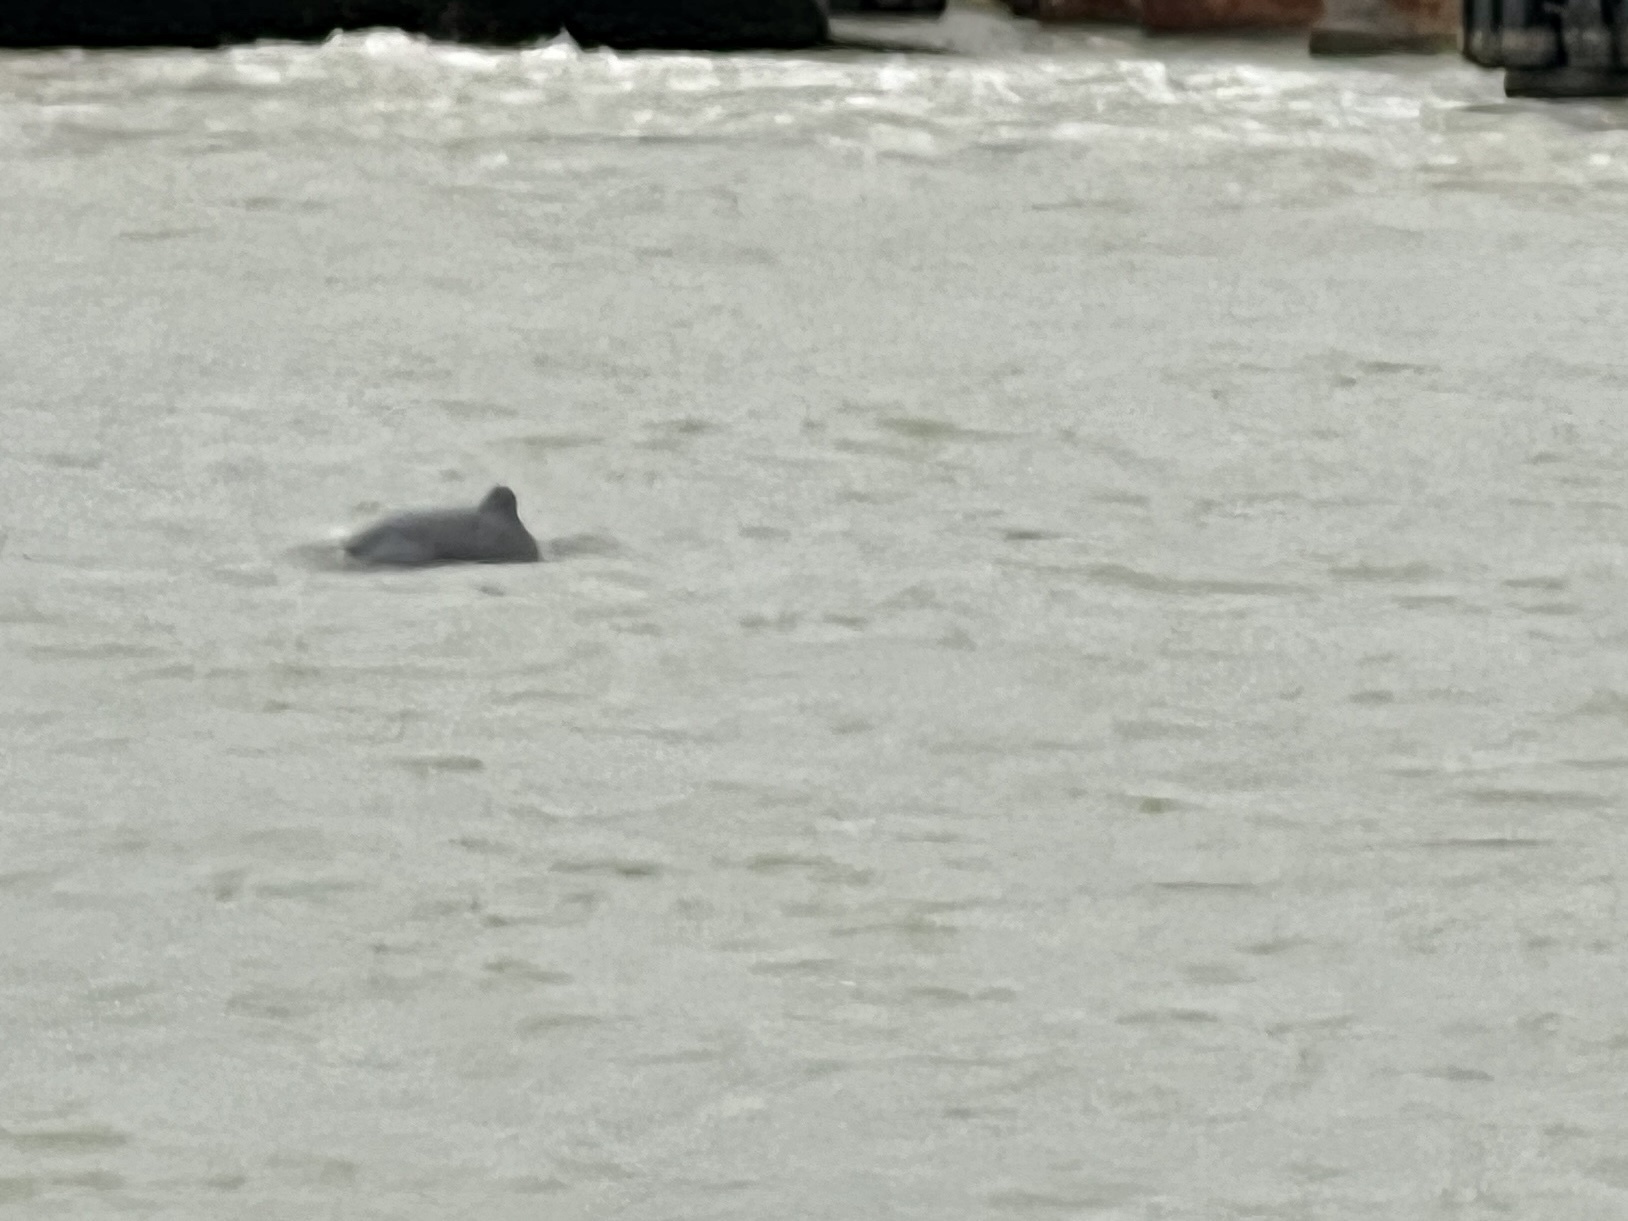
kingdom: Animalia
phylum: Chordata
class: Mammalia
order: Cetacea
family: Delphinidae
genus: Tursiops
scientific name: Tursiops truncatus
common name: Bottlenose dolphin
